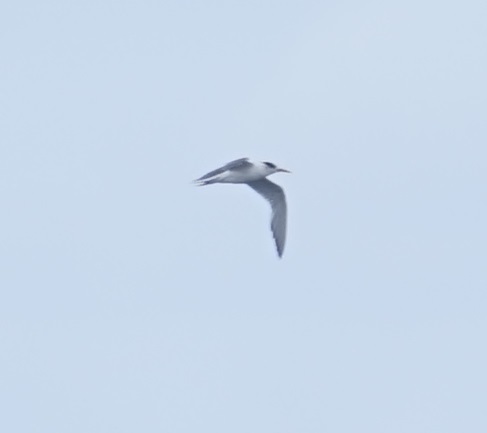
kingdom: Animalia
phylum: Chordata
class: Aves
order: Charadriiformes
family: Laridae
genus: Thalasseus
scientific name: Thalasseus bergii
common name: Greater crested tern
